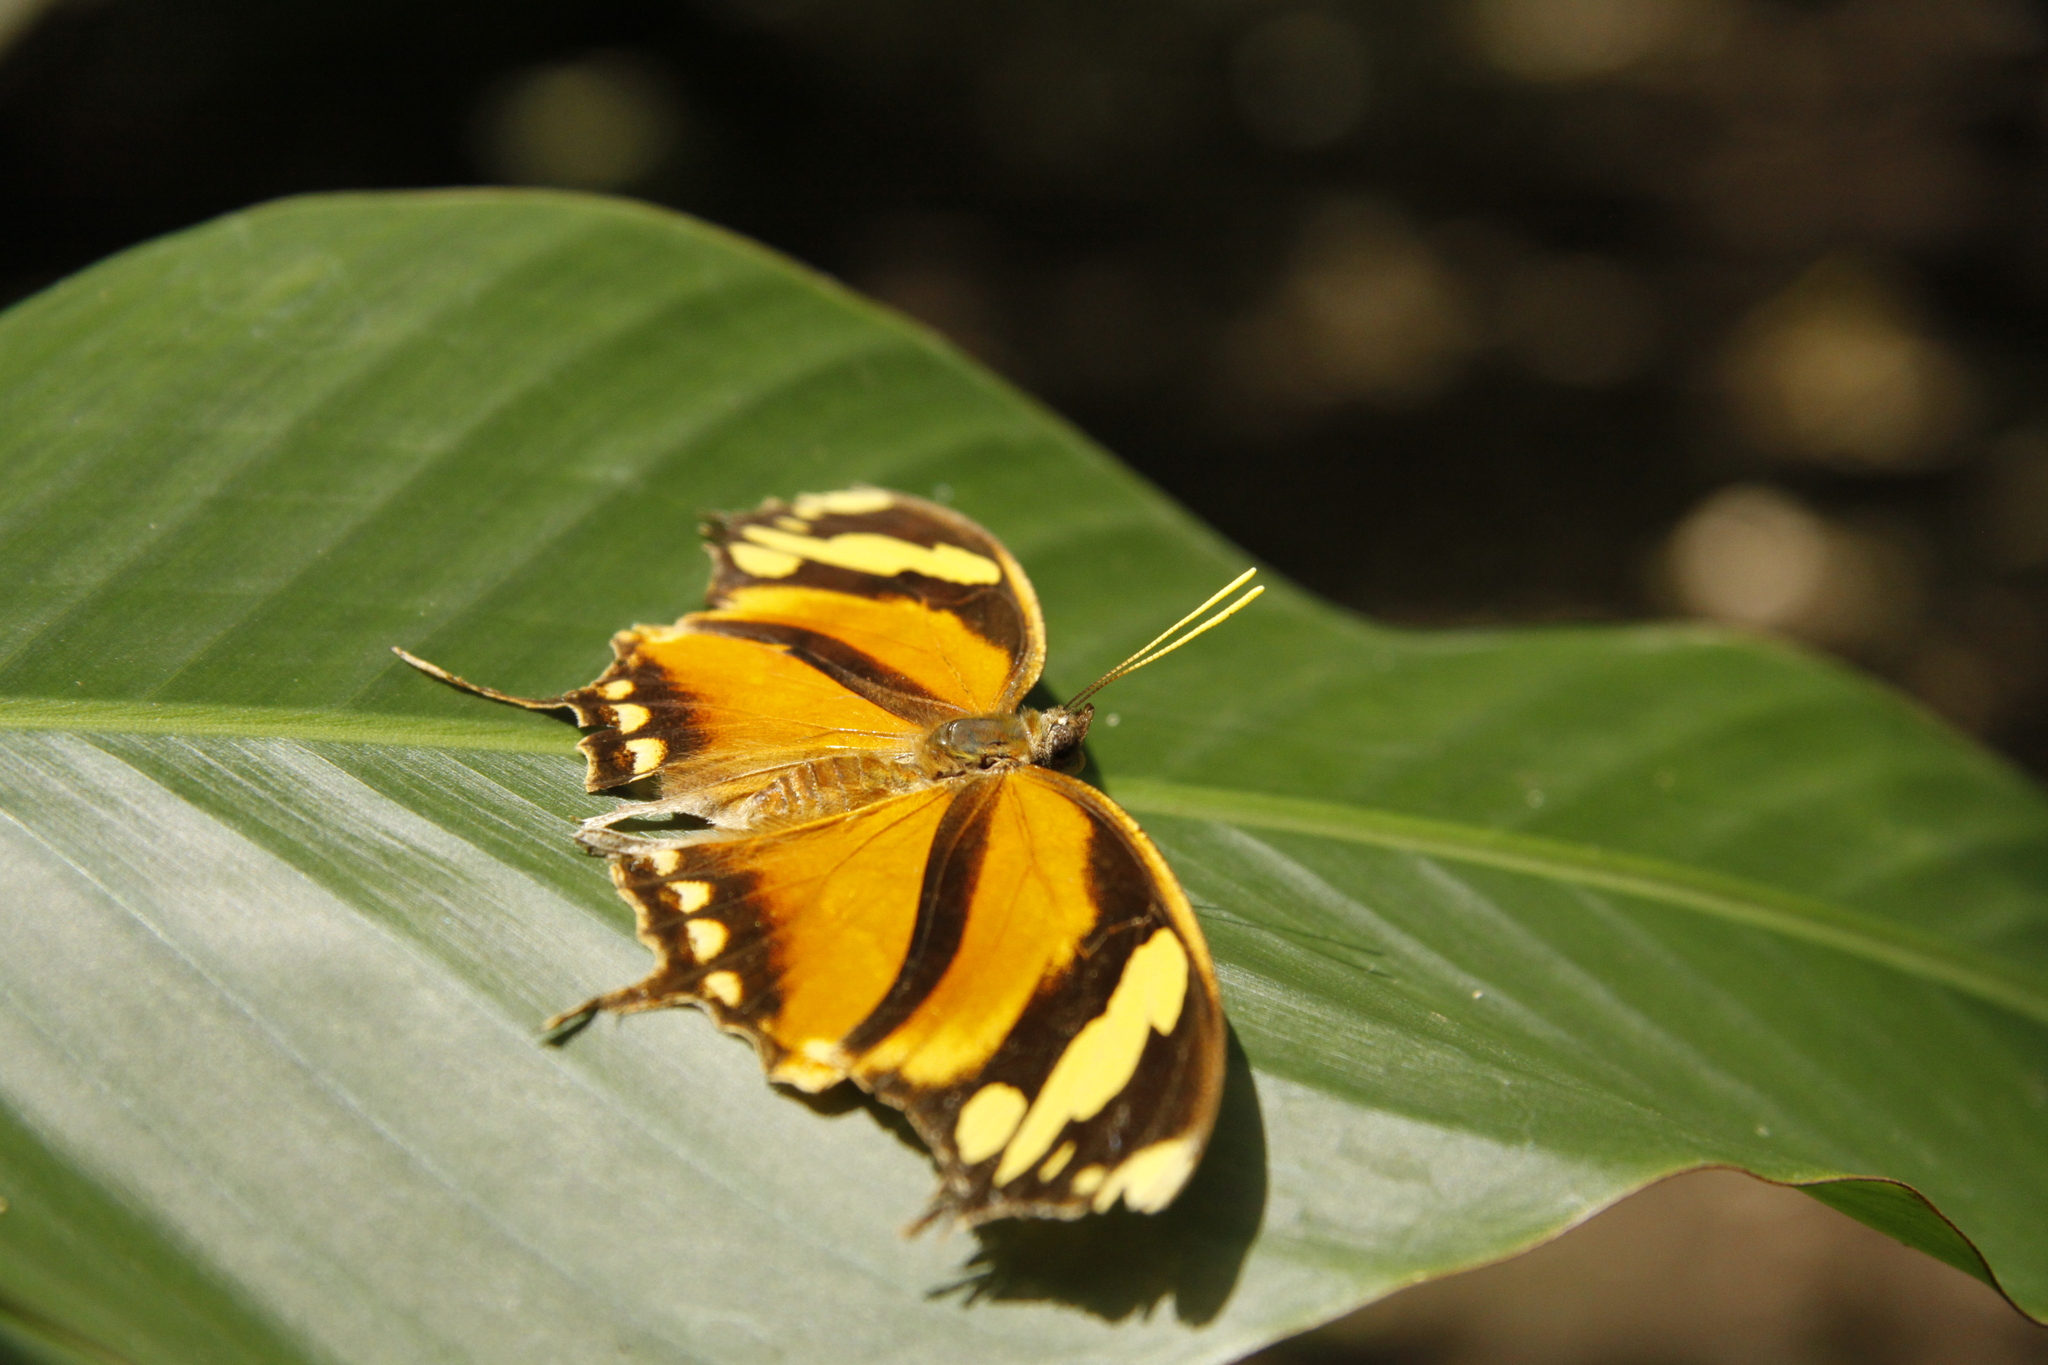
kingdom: Animalia
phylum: Arthropoda
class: Insecta
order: Lepidoptera
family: Nymphalidae
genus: Consul
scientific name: Consul fabius
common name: Tiger leafwing
